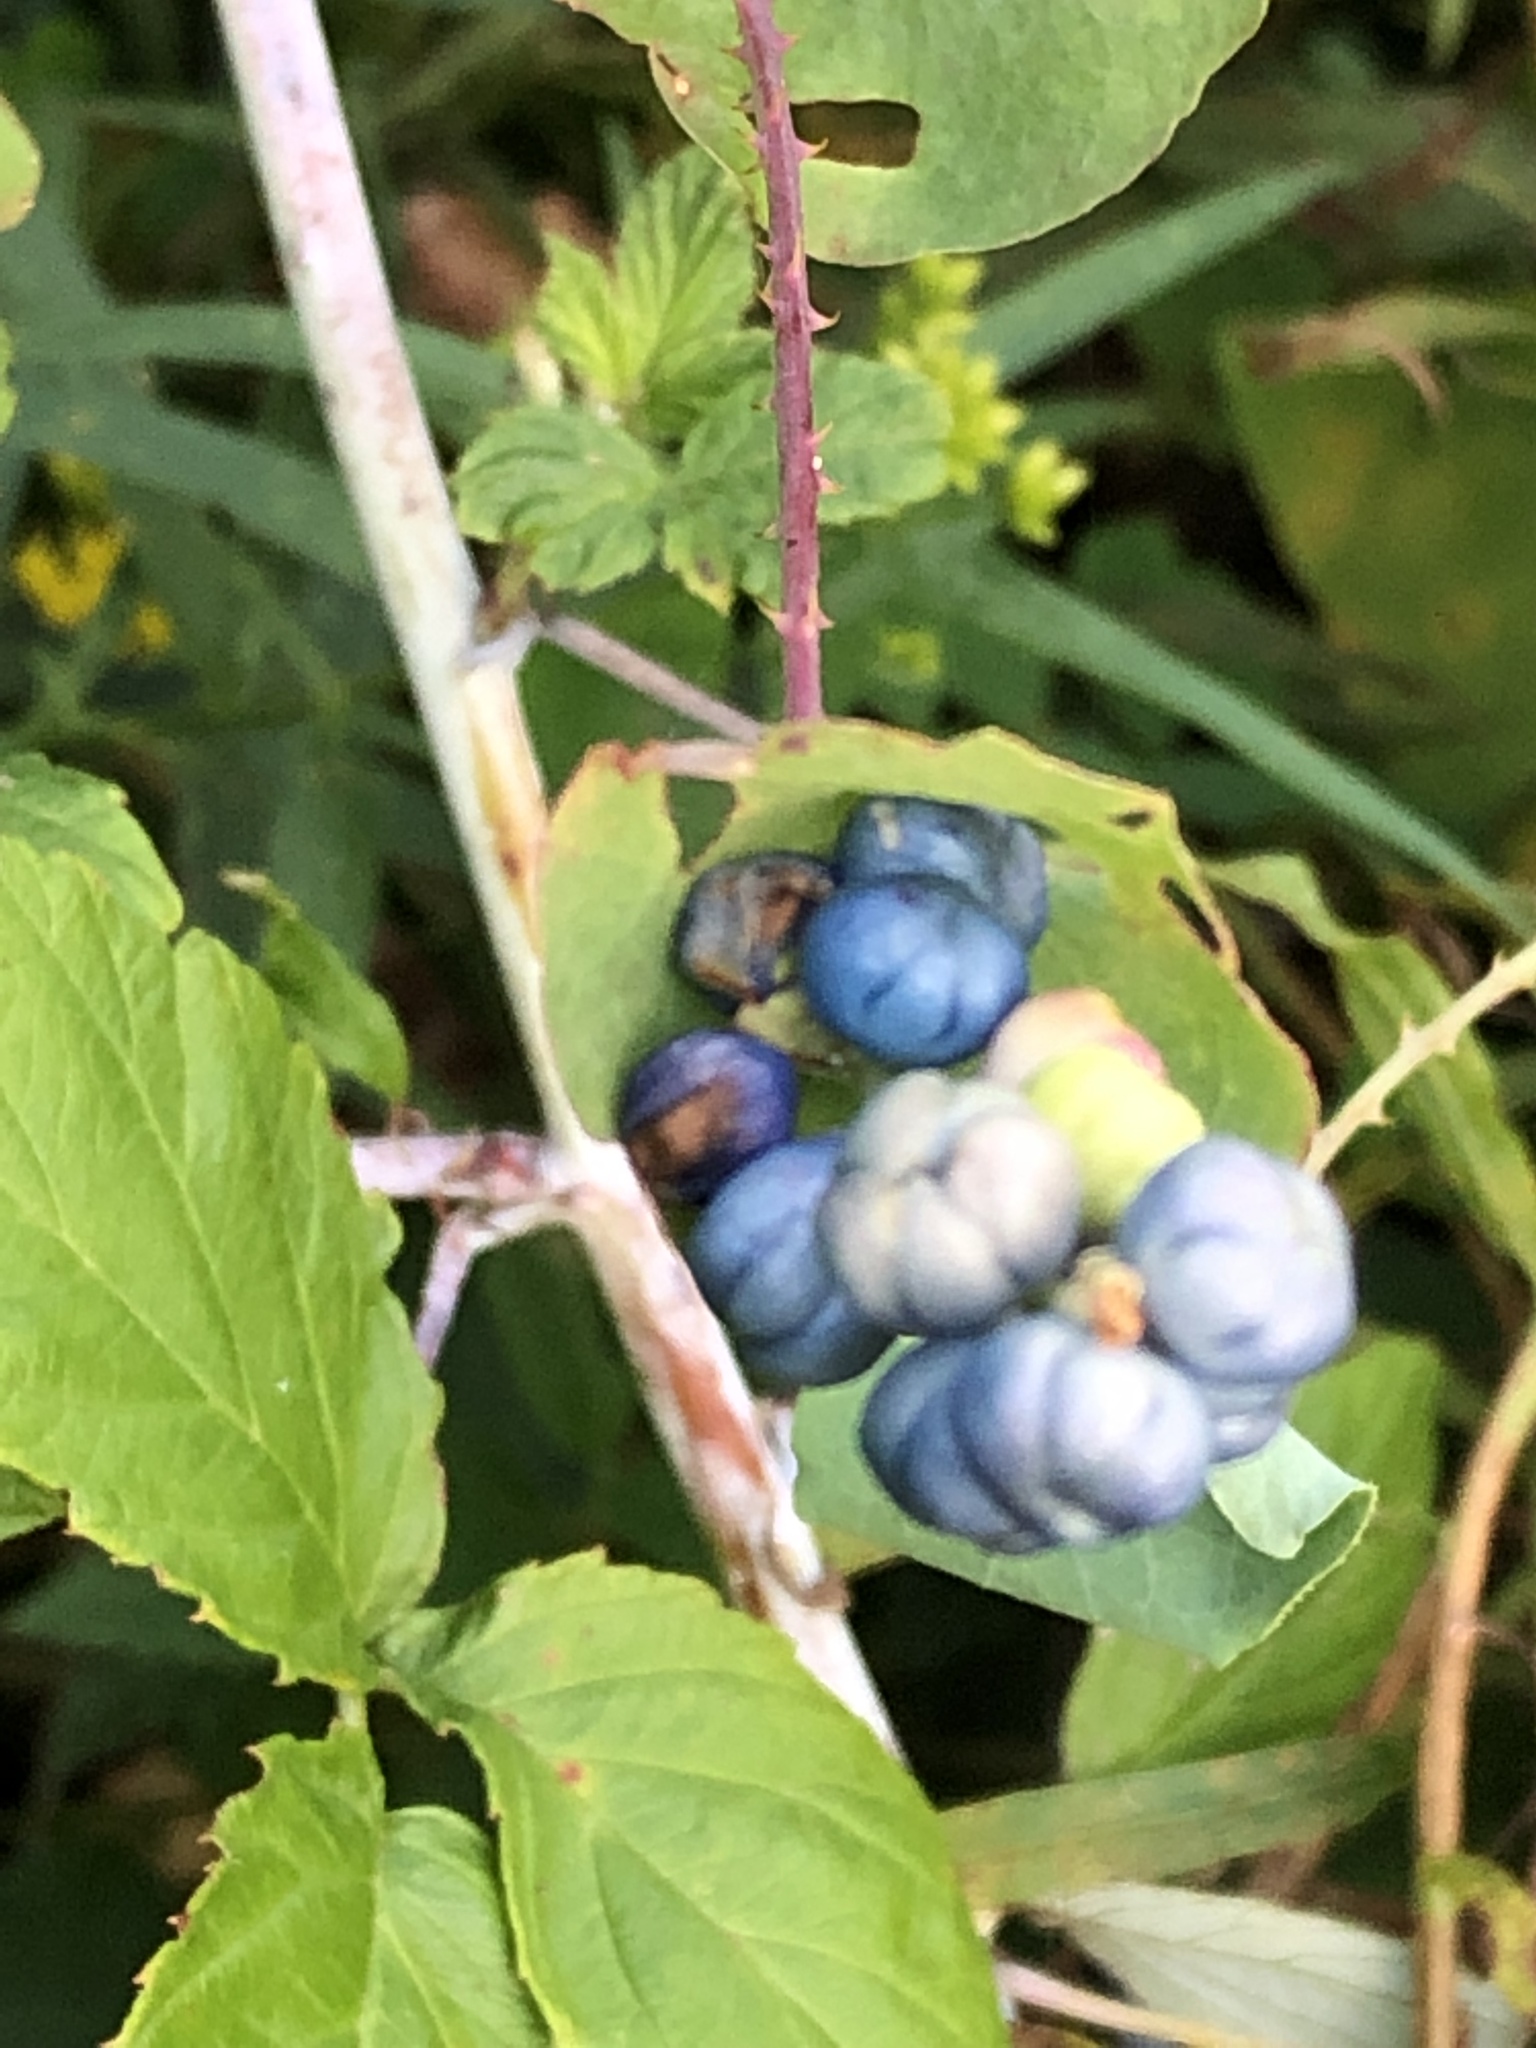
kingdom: Plantae
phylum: Tracheophyta
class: Magnoliopsida
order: Caryophyllales
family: Polygonaceae
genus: Persicaria
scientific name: Persicaria perfoliata
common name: Asiatic tearthumb
